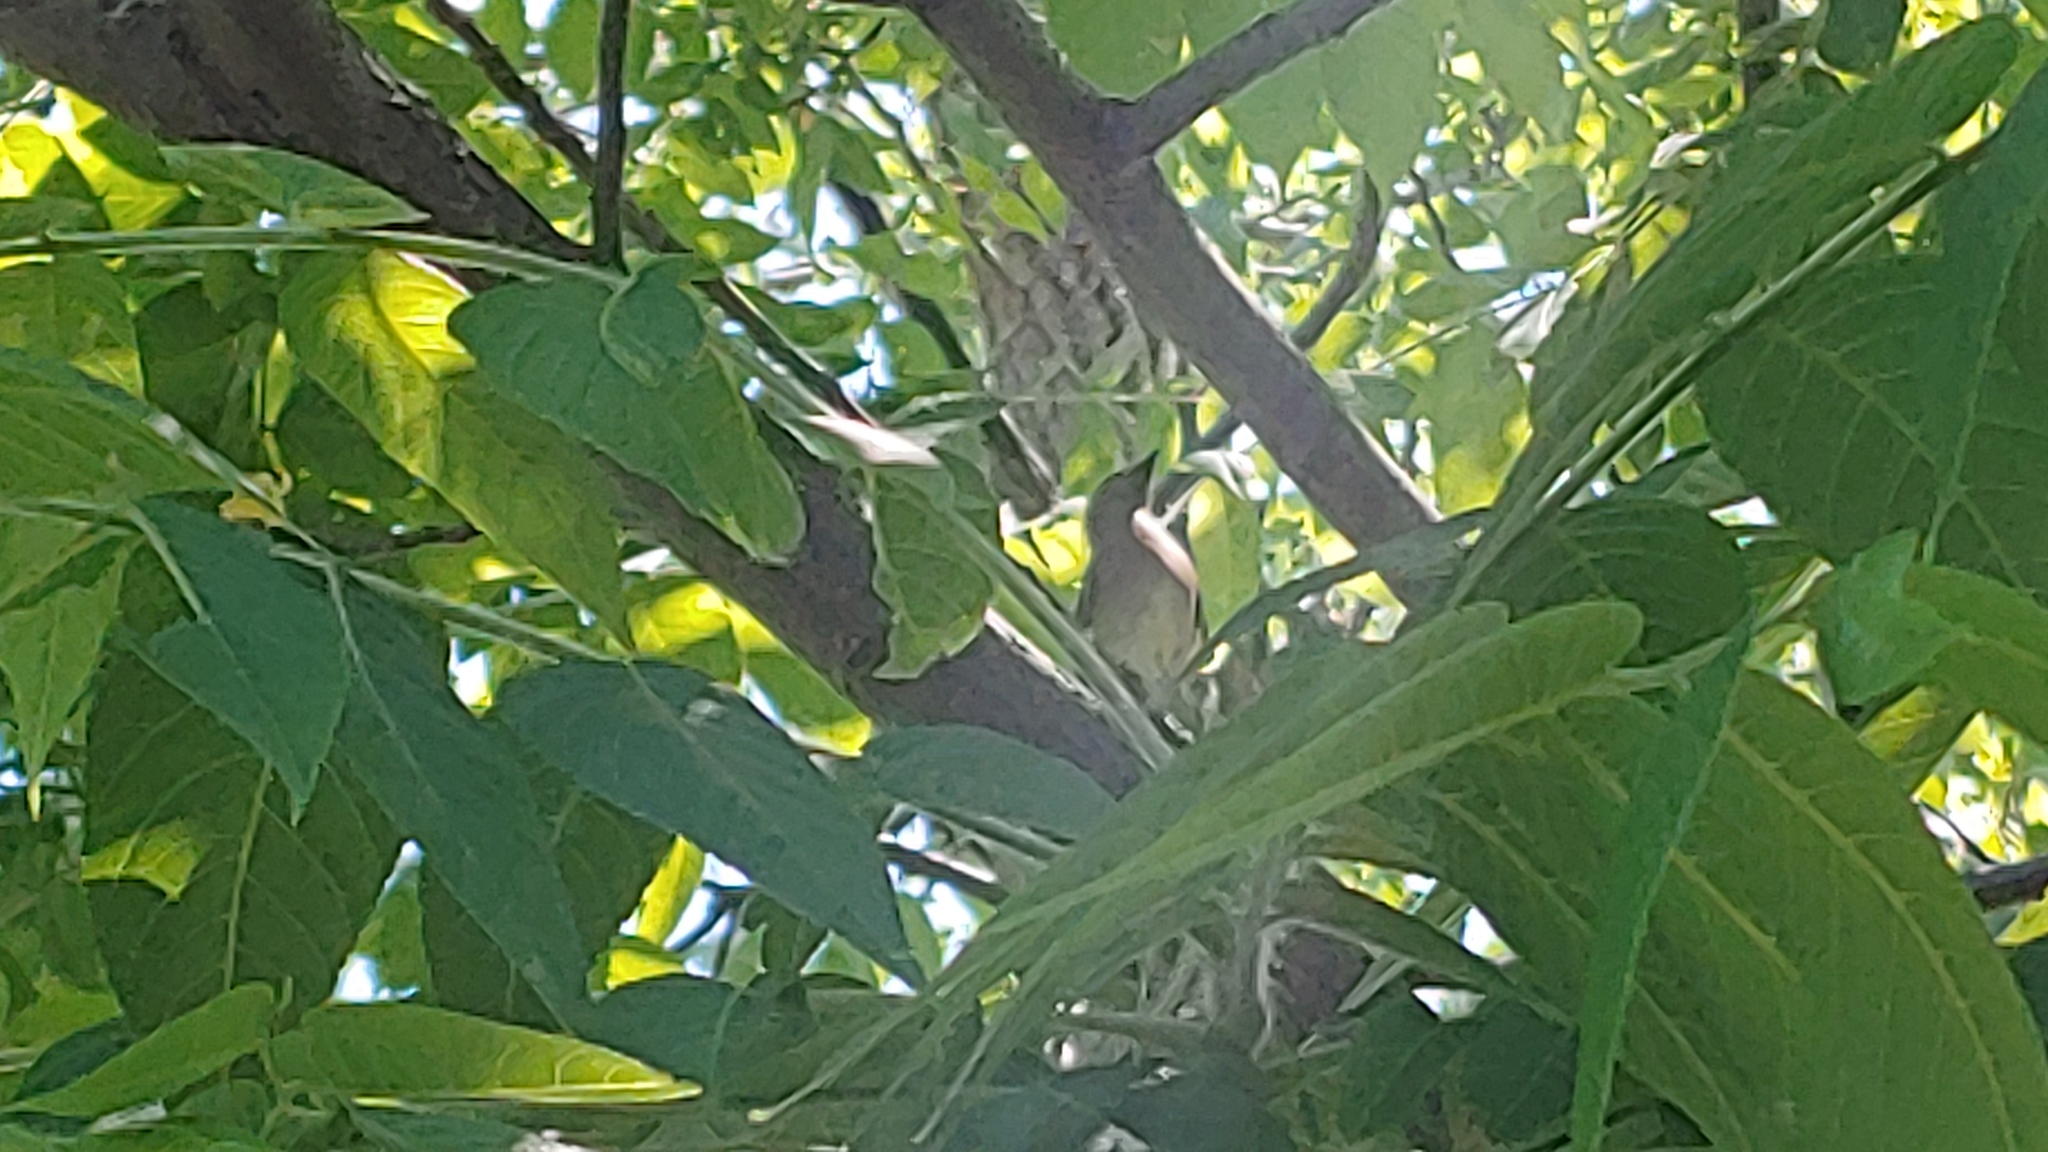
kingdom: Animalia
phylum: Chordata
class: Aves
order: Passeriformes
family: Bombycillidae
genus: Bombycilla
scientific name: Bombycilla cedrorum
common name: Cedar waxwing
